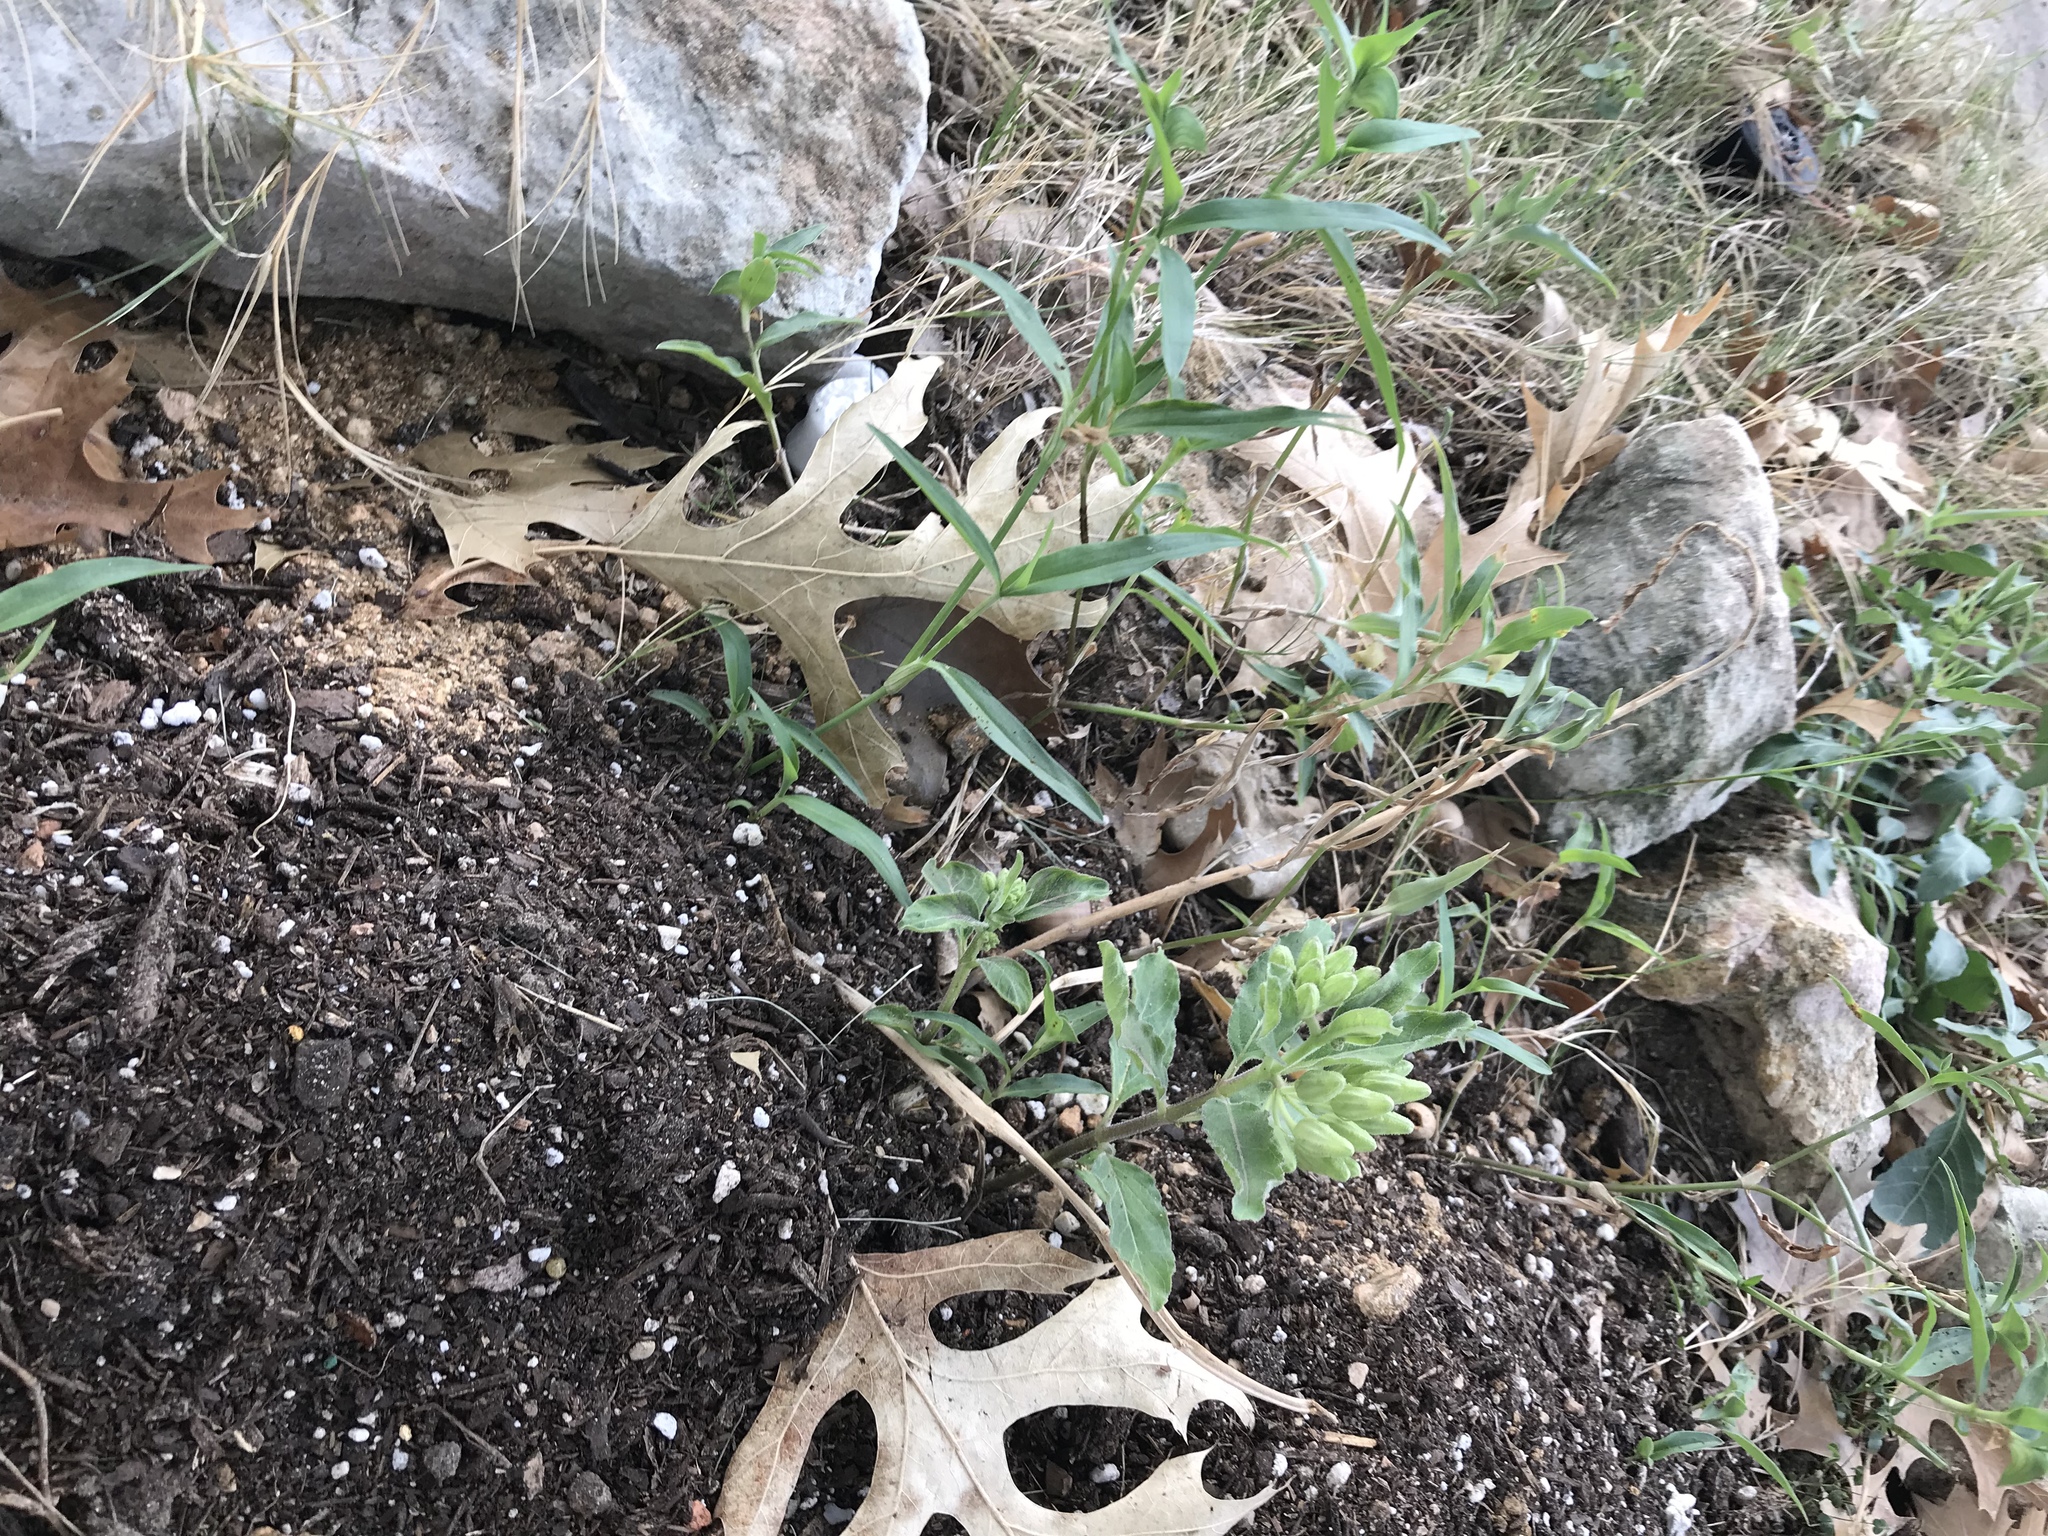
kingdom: Plantae
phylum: Tracheophyta
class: Magnoliopsida
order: Gentianales
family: Apocynaceae
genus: Asclepias
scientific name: Asclepias oenotheroides
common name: Zizotes milkweed
